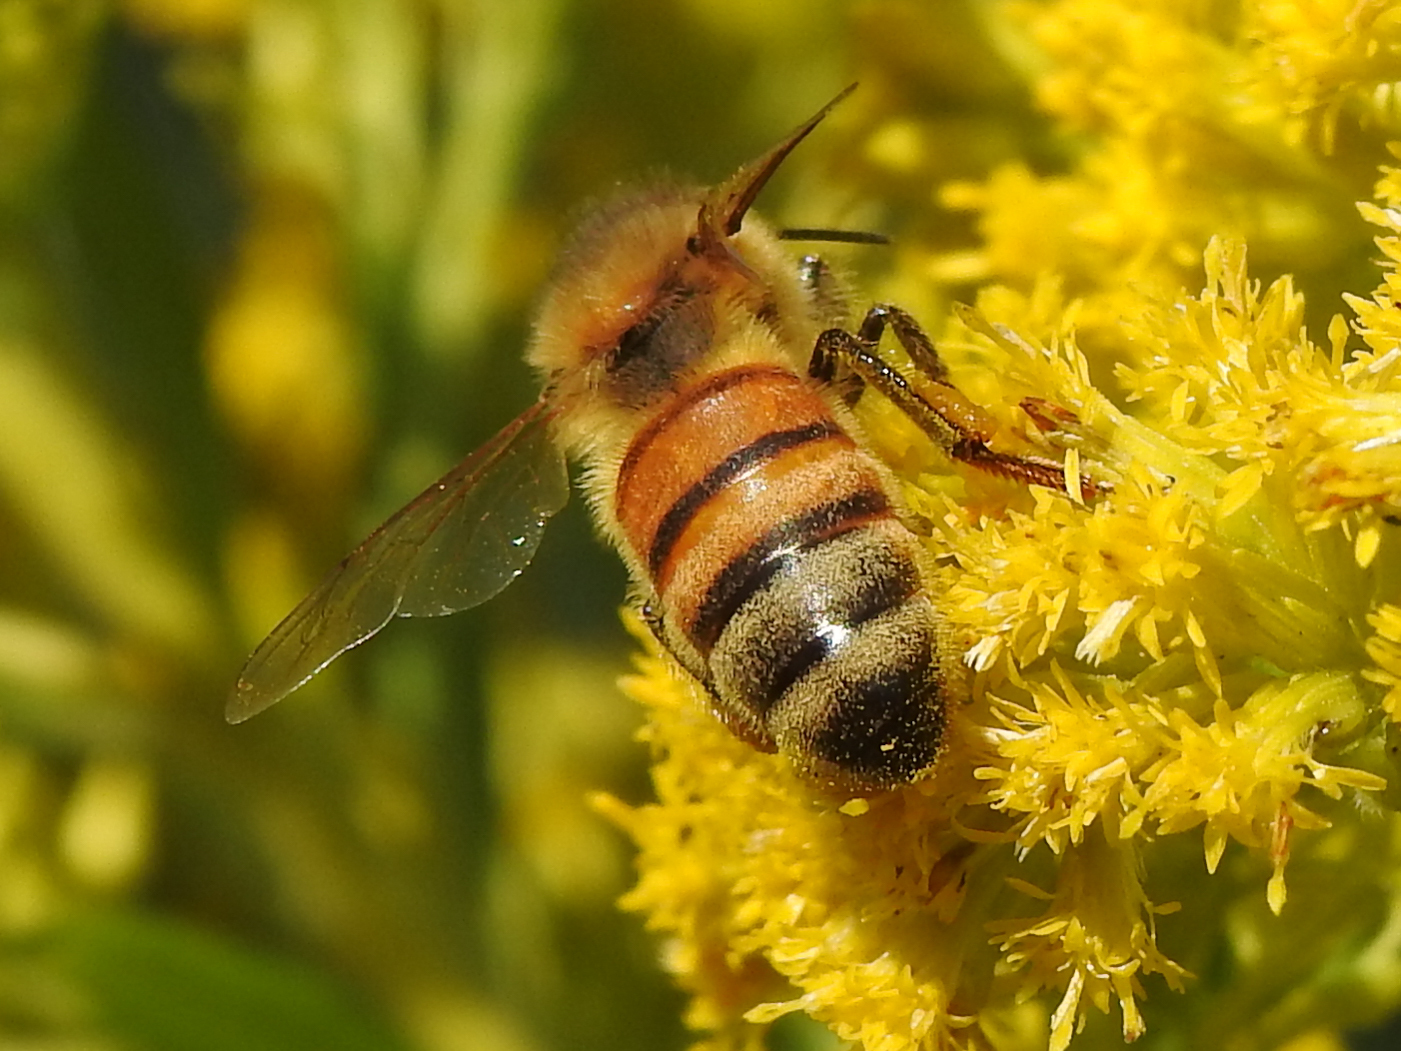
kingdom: Animalia
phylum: Arthropoda
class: Insecta
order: Hymenoptera
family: Apidae
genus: Apis
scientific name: Apis mellifera
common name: Honey bee
